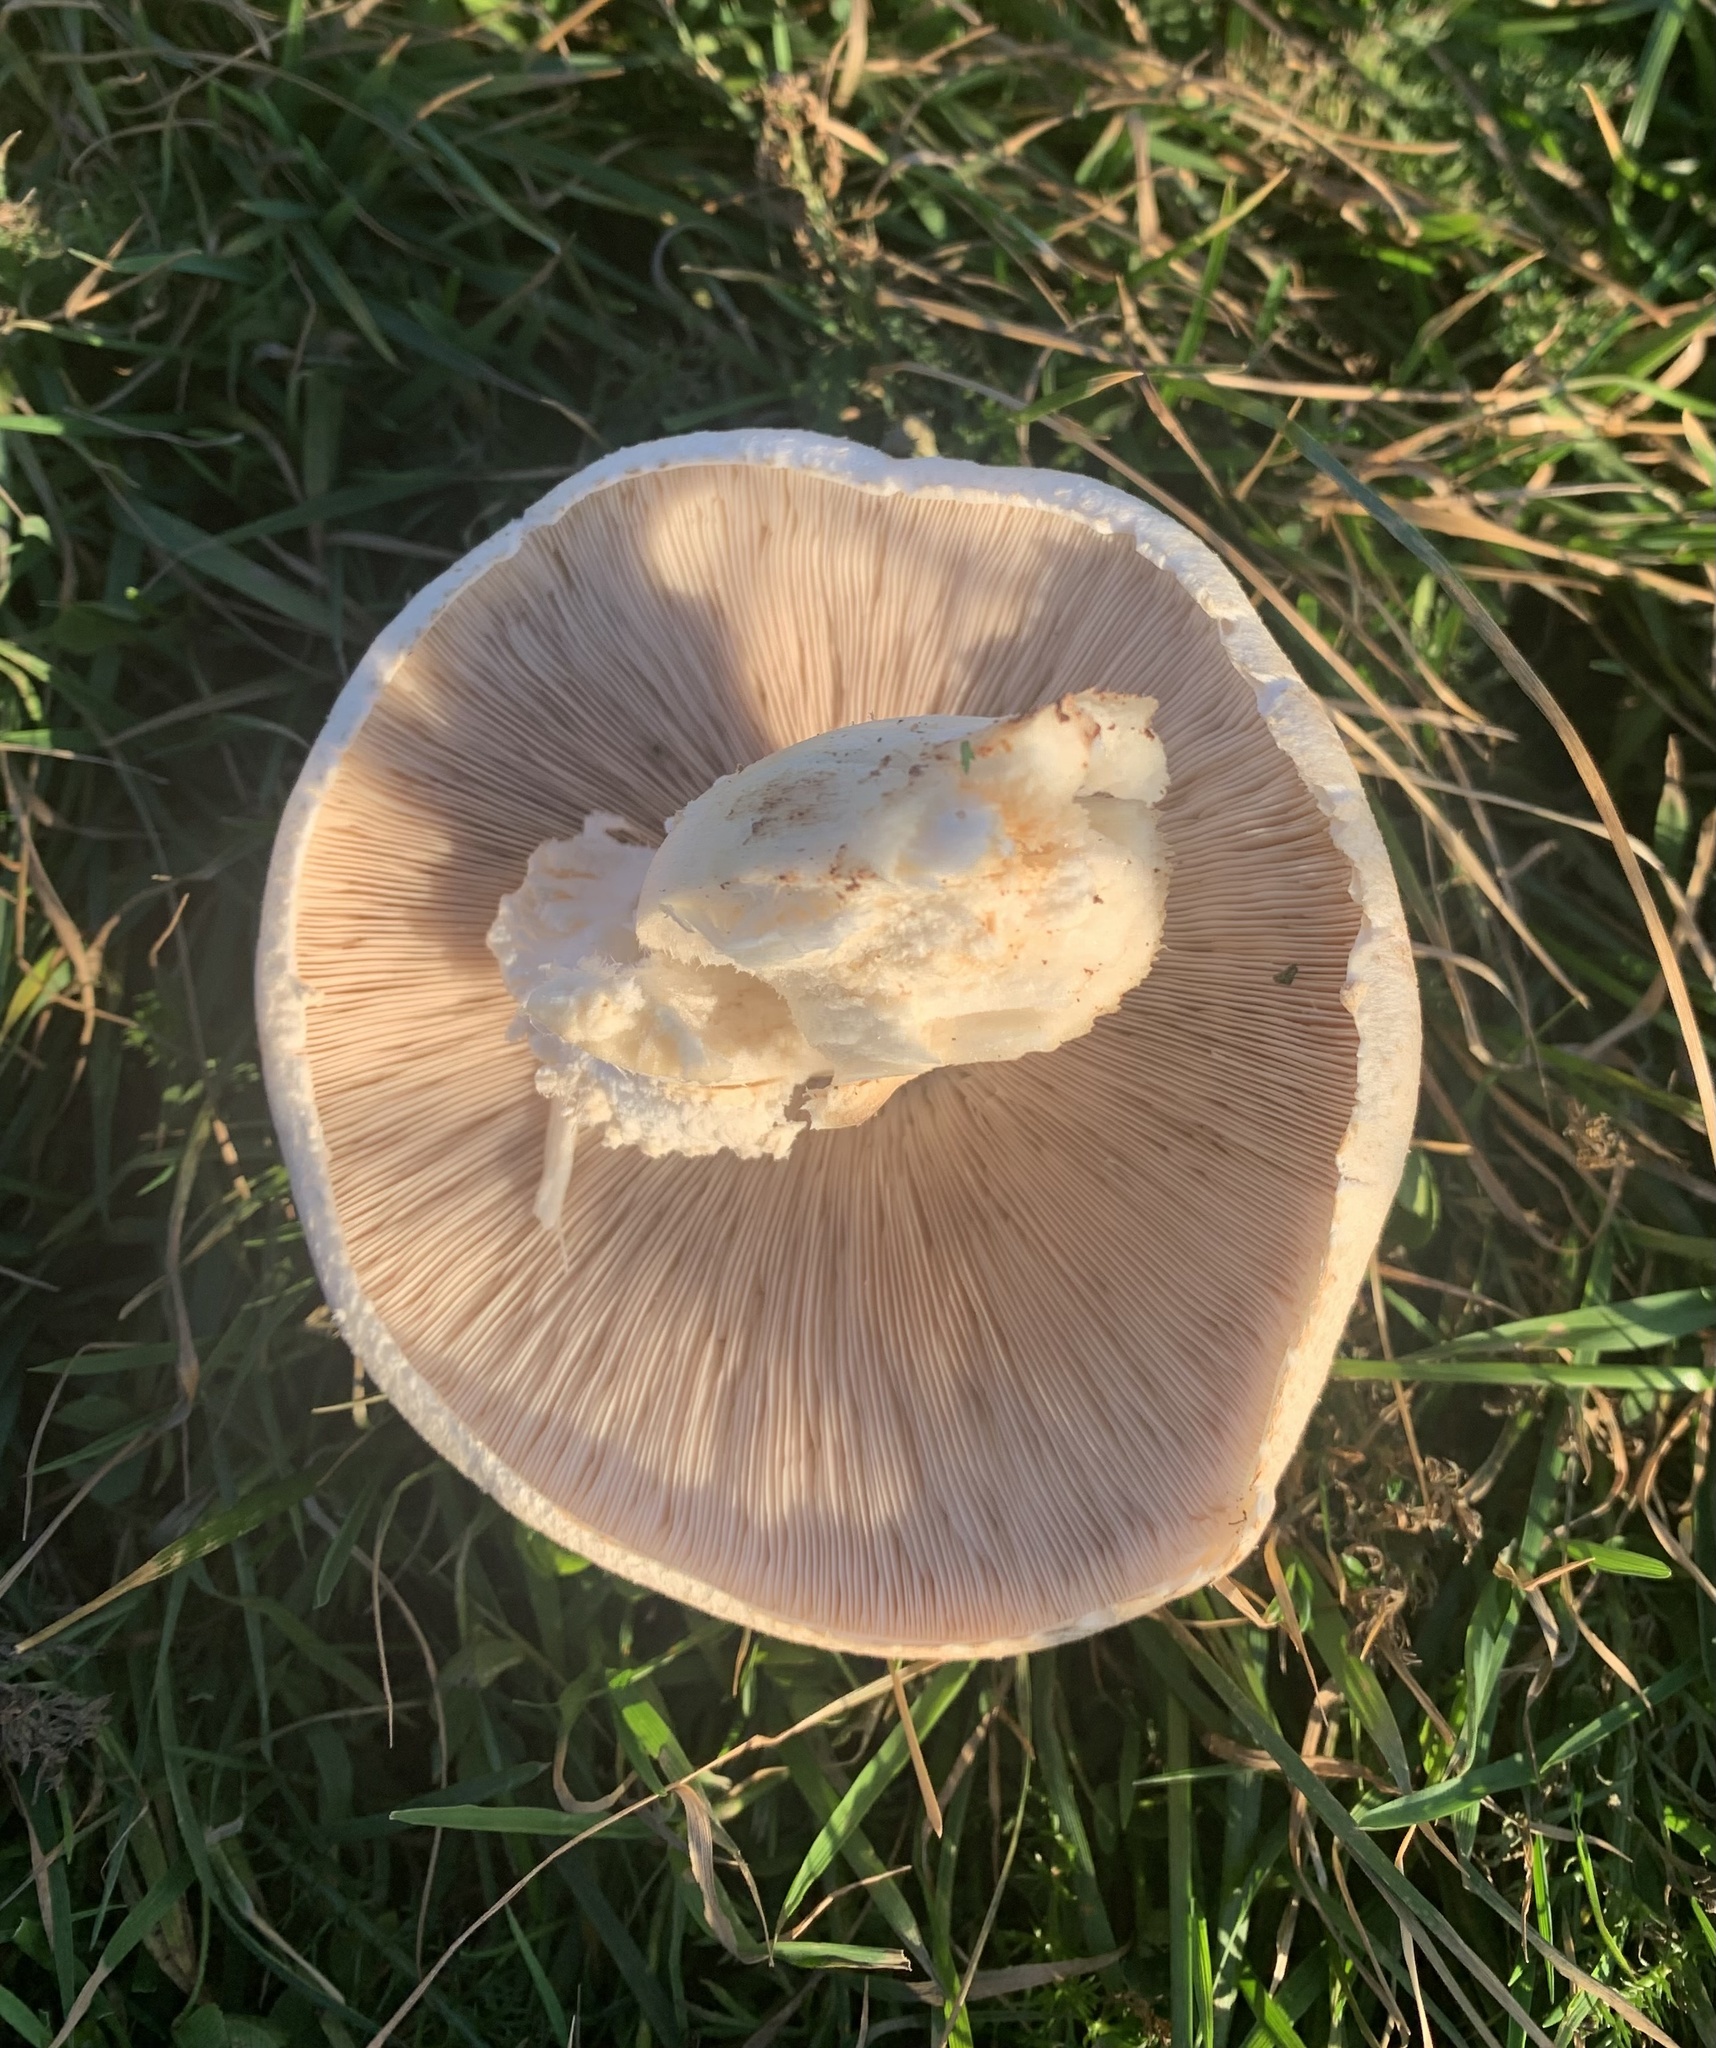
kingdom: Fungi
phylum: Basidiomycota
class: Agaricomycetes
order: Agaricales
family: Agaricaceae
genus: Agaricus
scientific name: Agaricus campestris
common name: Field mushroom
